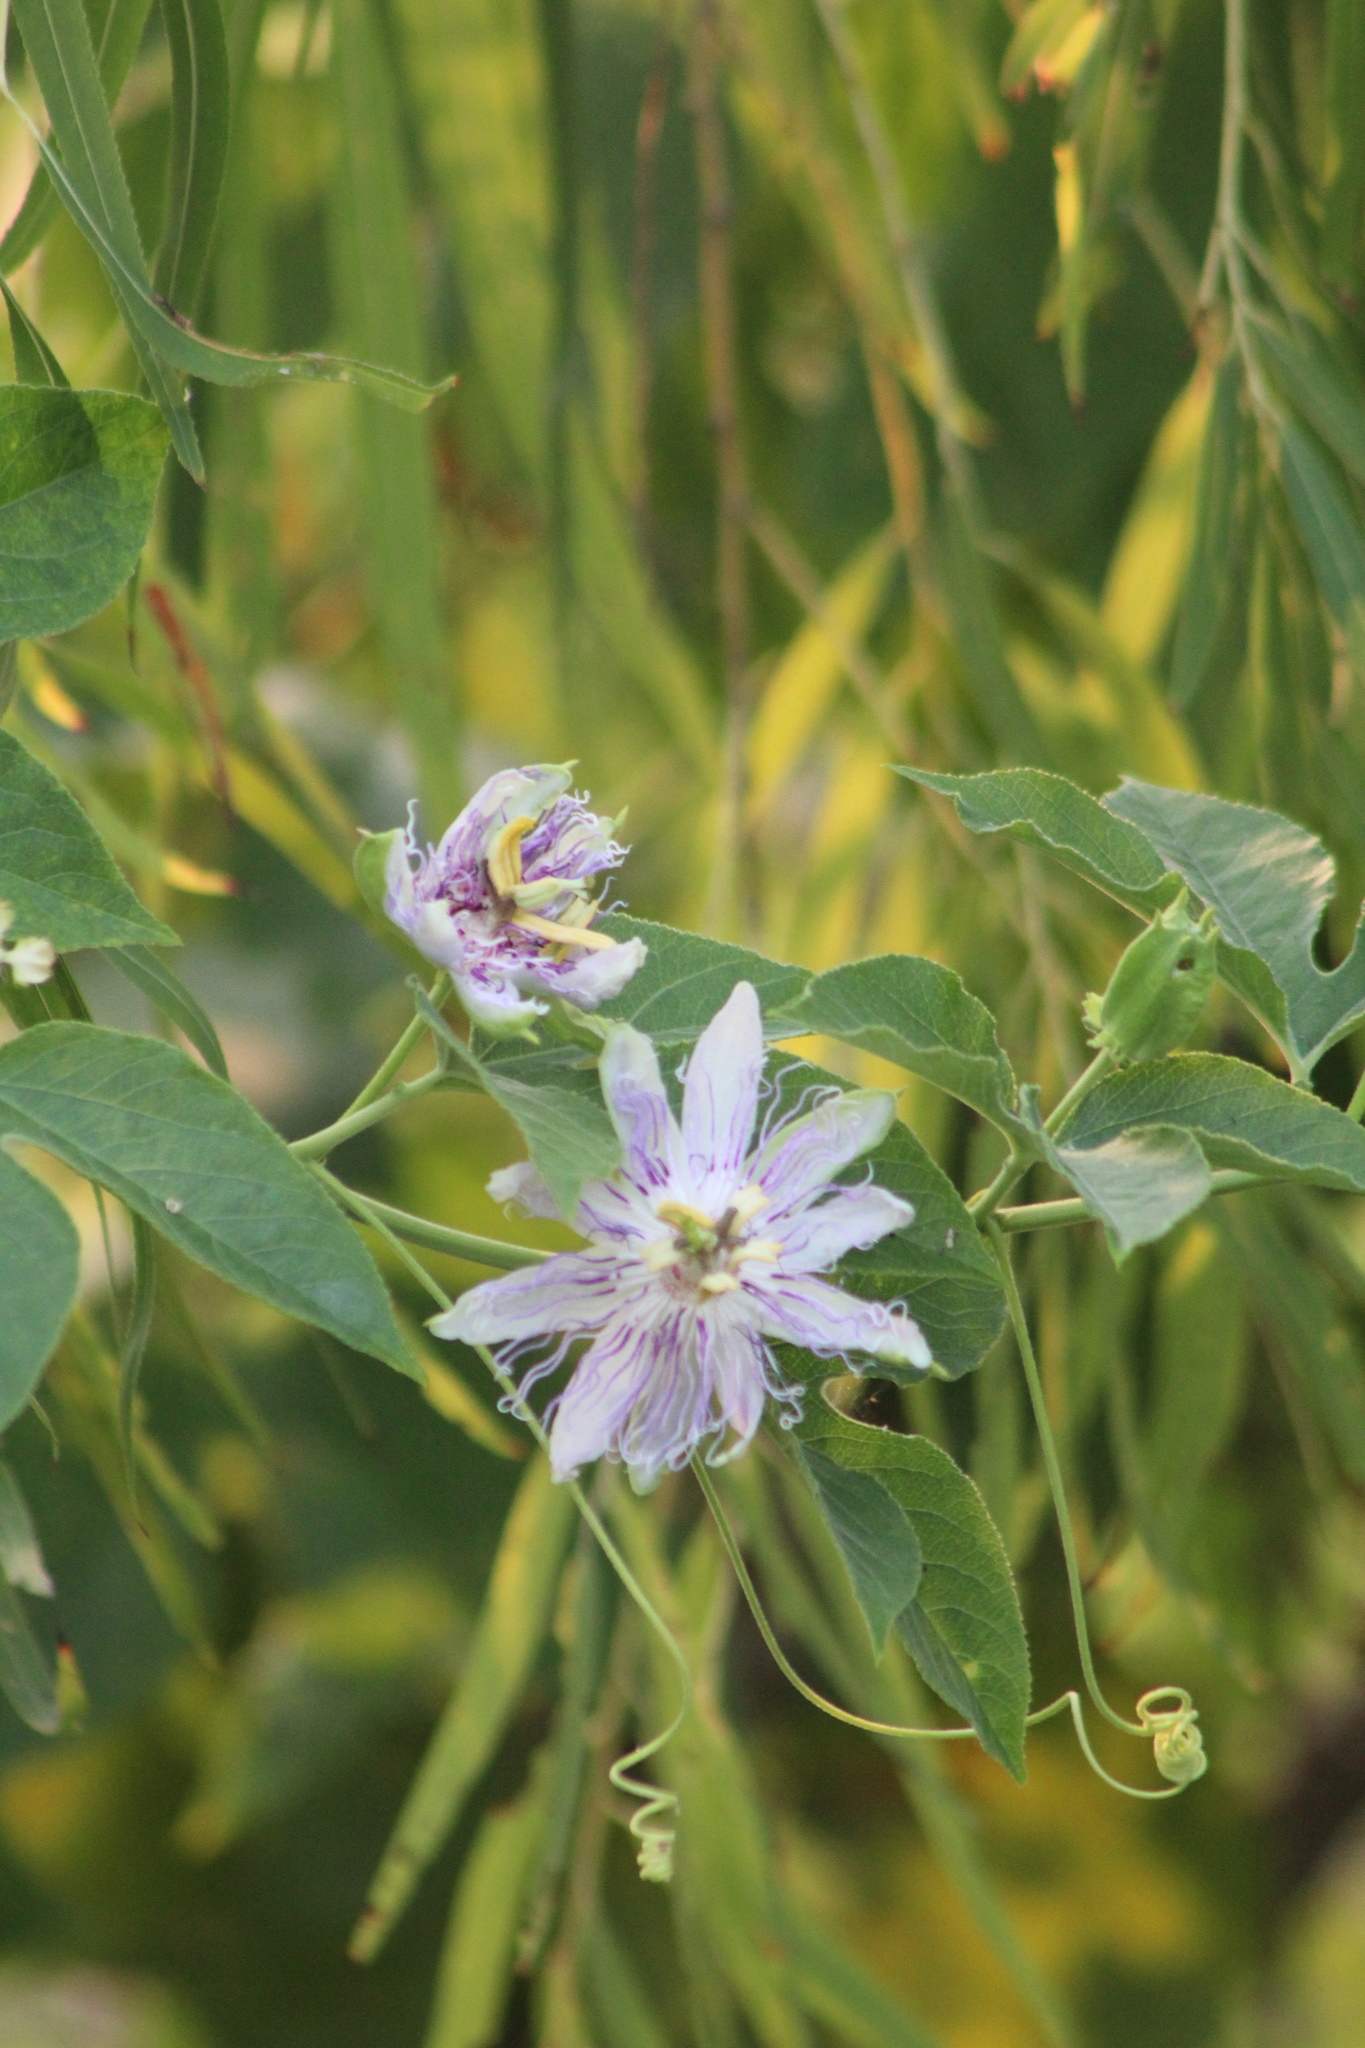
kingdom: Plantae
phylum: Tracheophyta
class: Magnoliopsida
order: Malpighiales
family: Passifloraceae
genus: Passiflora
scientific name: Passiflora incarnata
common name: Apricot-vine
